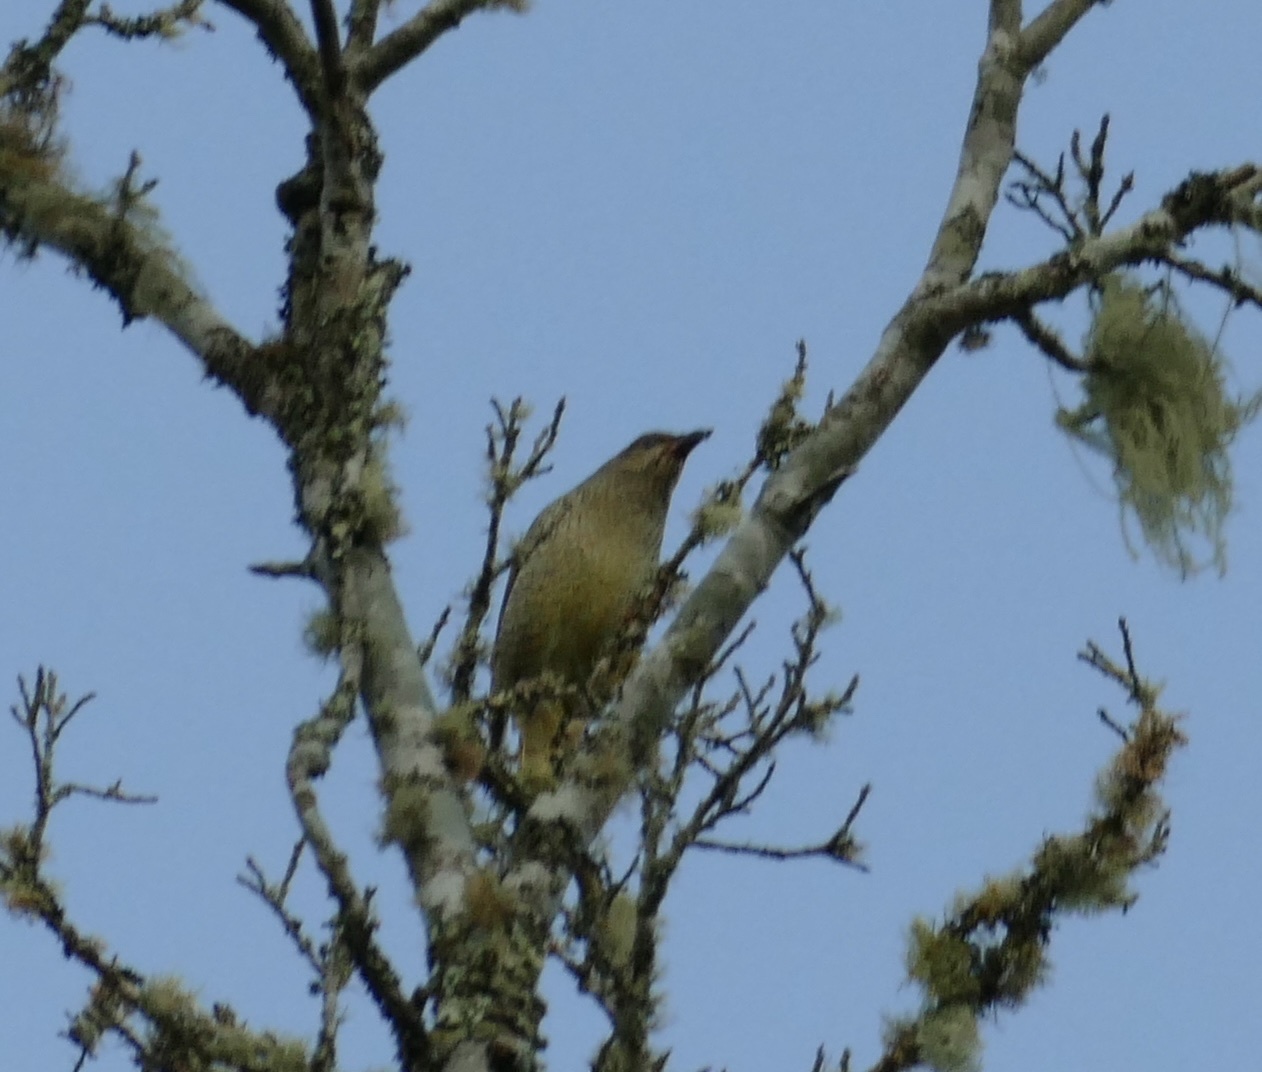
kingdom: Animalia
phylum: Chordata
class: Aves
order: Passeriformes
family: Ptilonorhynchidae
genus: Ptilonorhynchus
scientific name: Ptilonorhynchus violaceus
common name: Satin bowerbird
